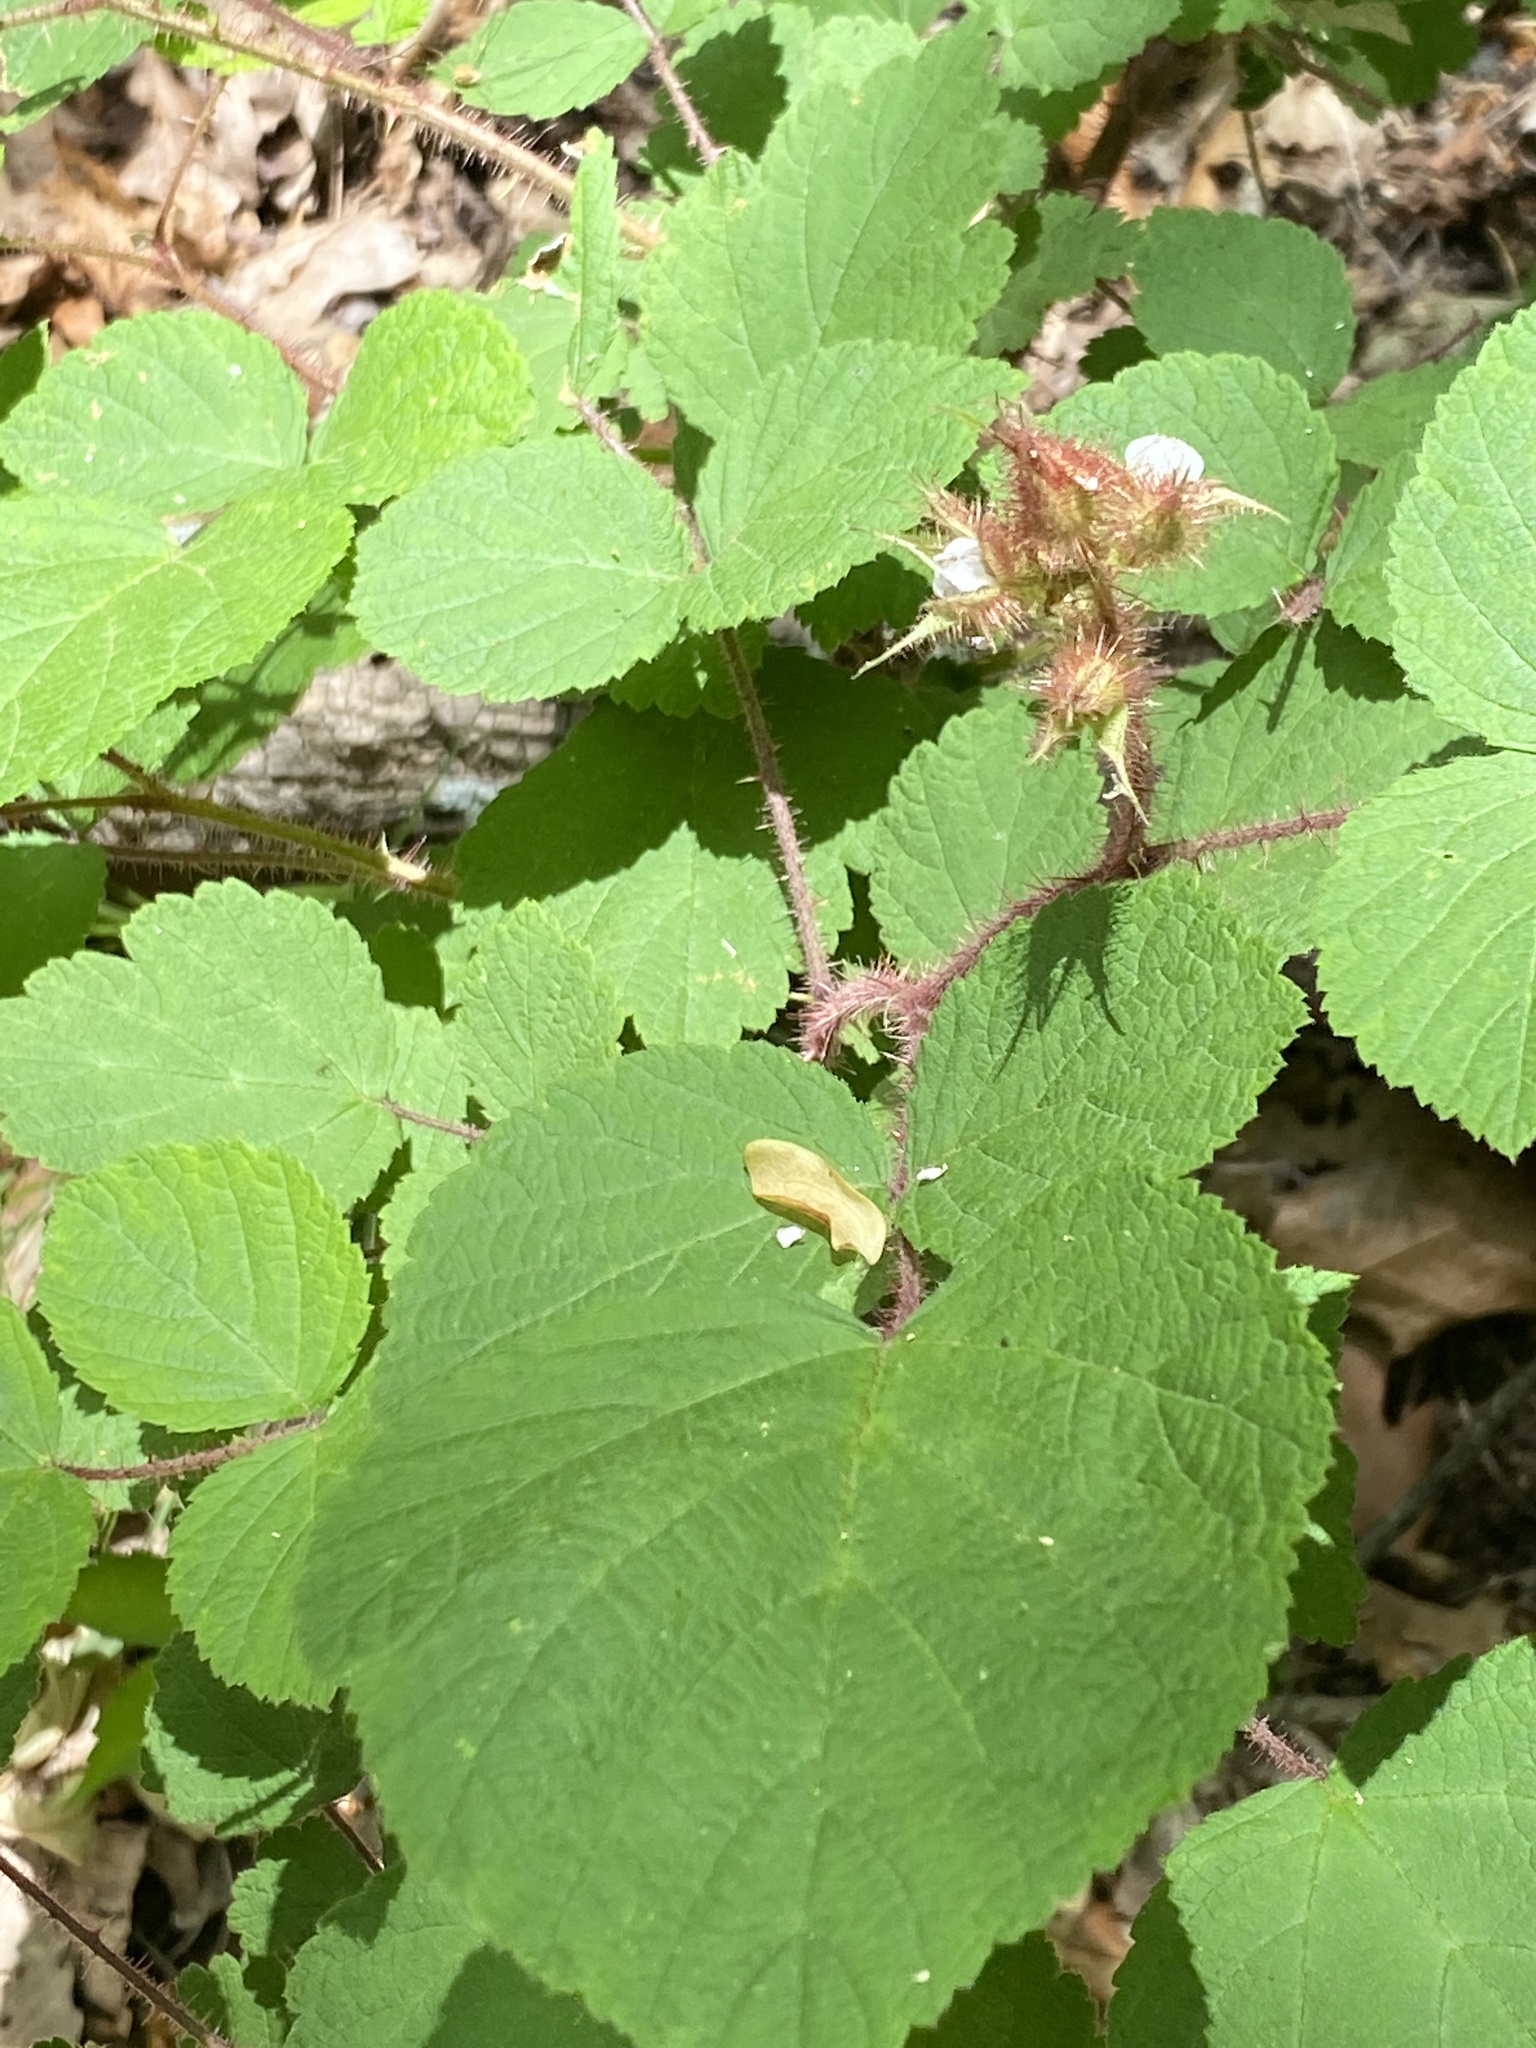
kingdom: Plantae
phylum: Tracheophyta
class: Magnoliopsida
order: Rosales
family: Rosaceae
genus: Rubus
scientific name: Rubus phoenicolasius
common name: Japanese wineberry
